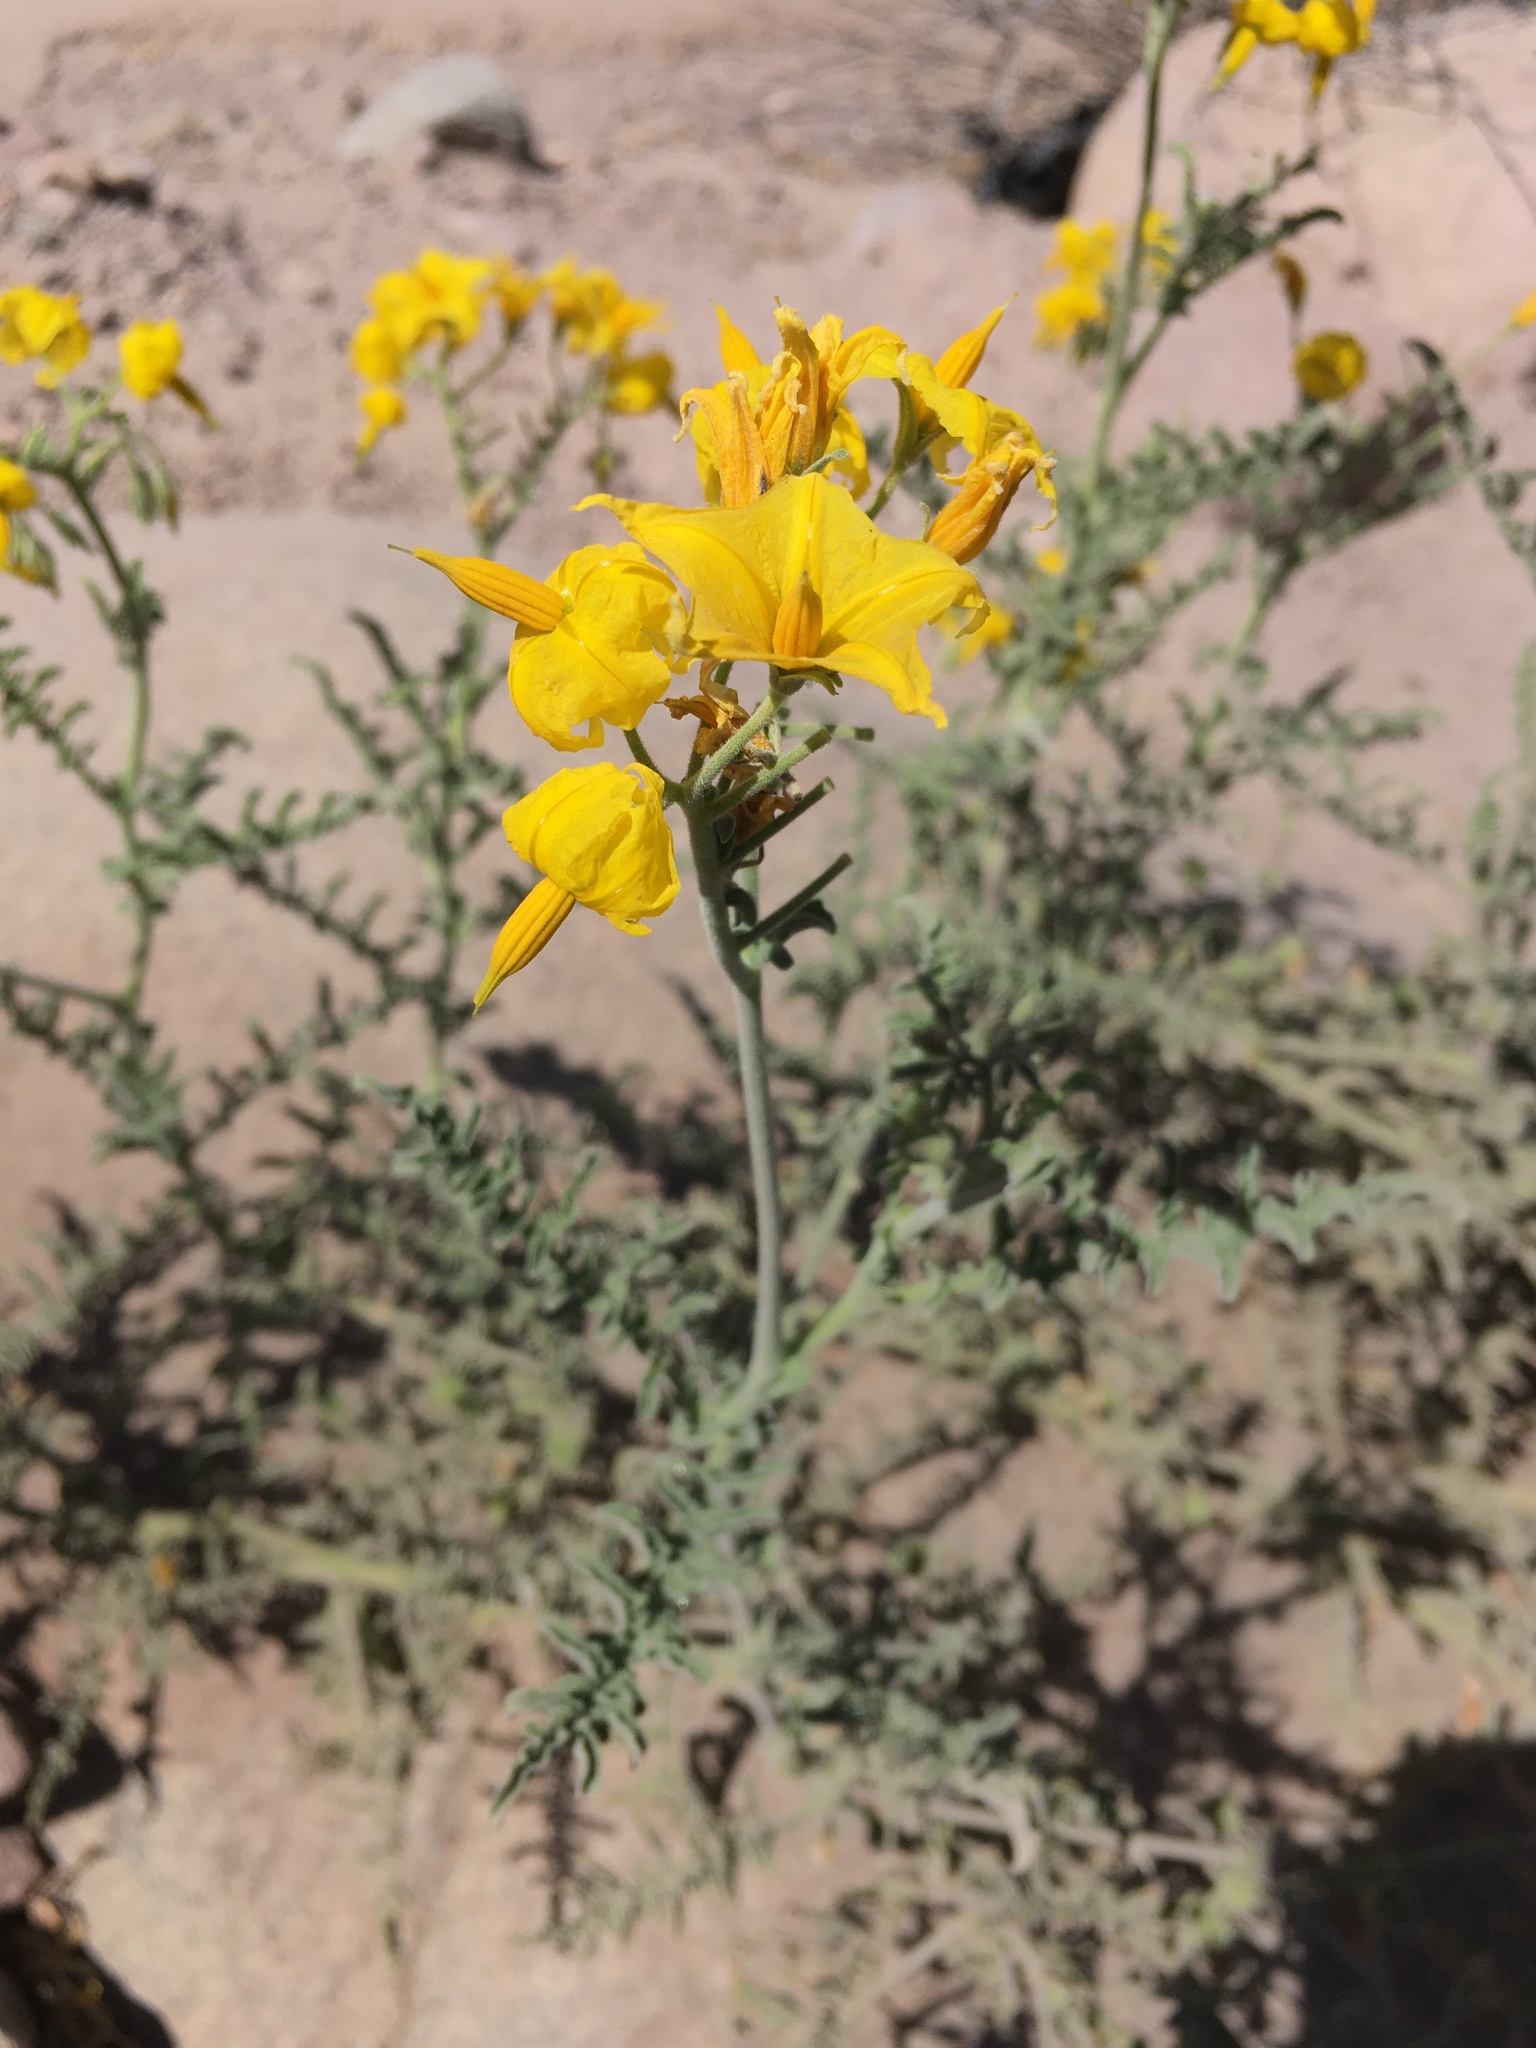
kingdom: Plantae
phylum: Tracheophyta
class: Magnoliopsida
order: Solanales
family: Solanaceae
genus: Solanum
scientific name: Solanum chilense
